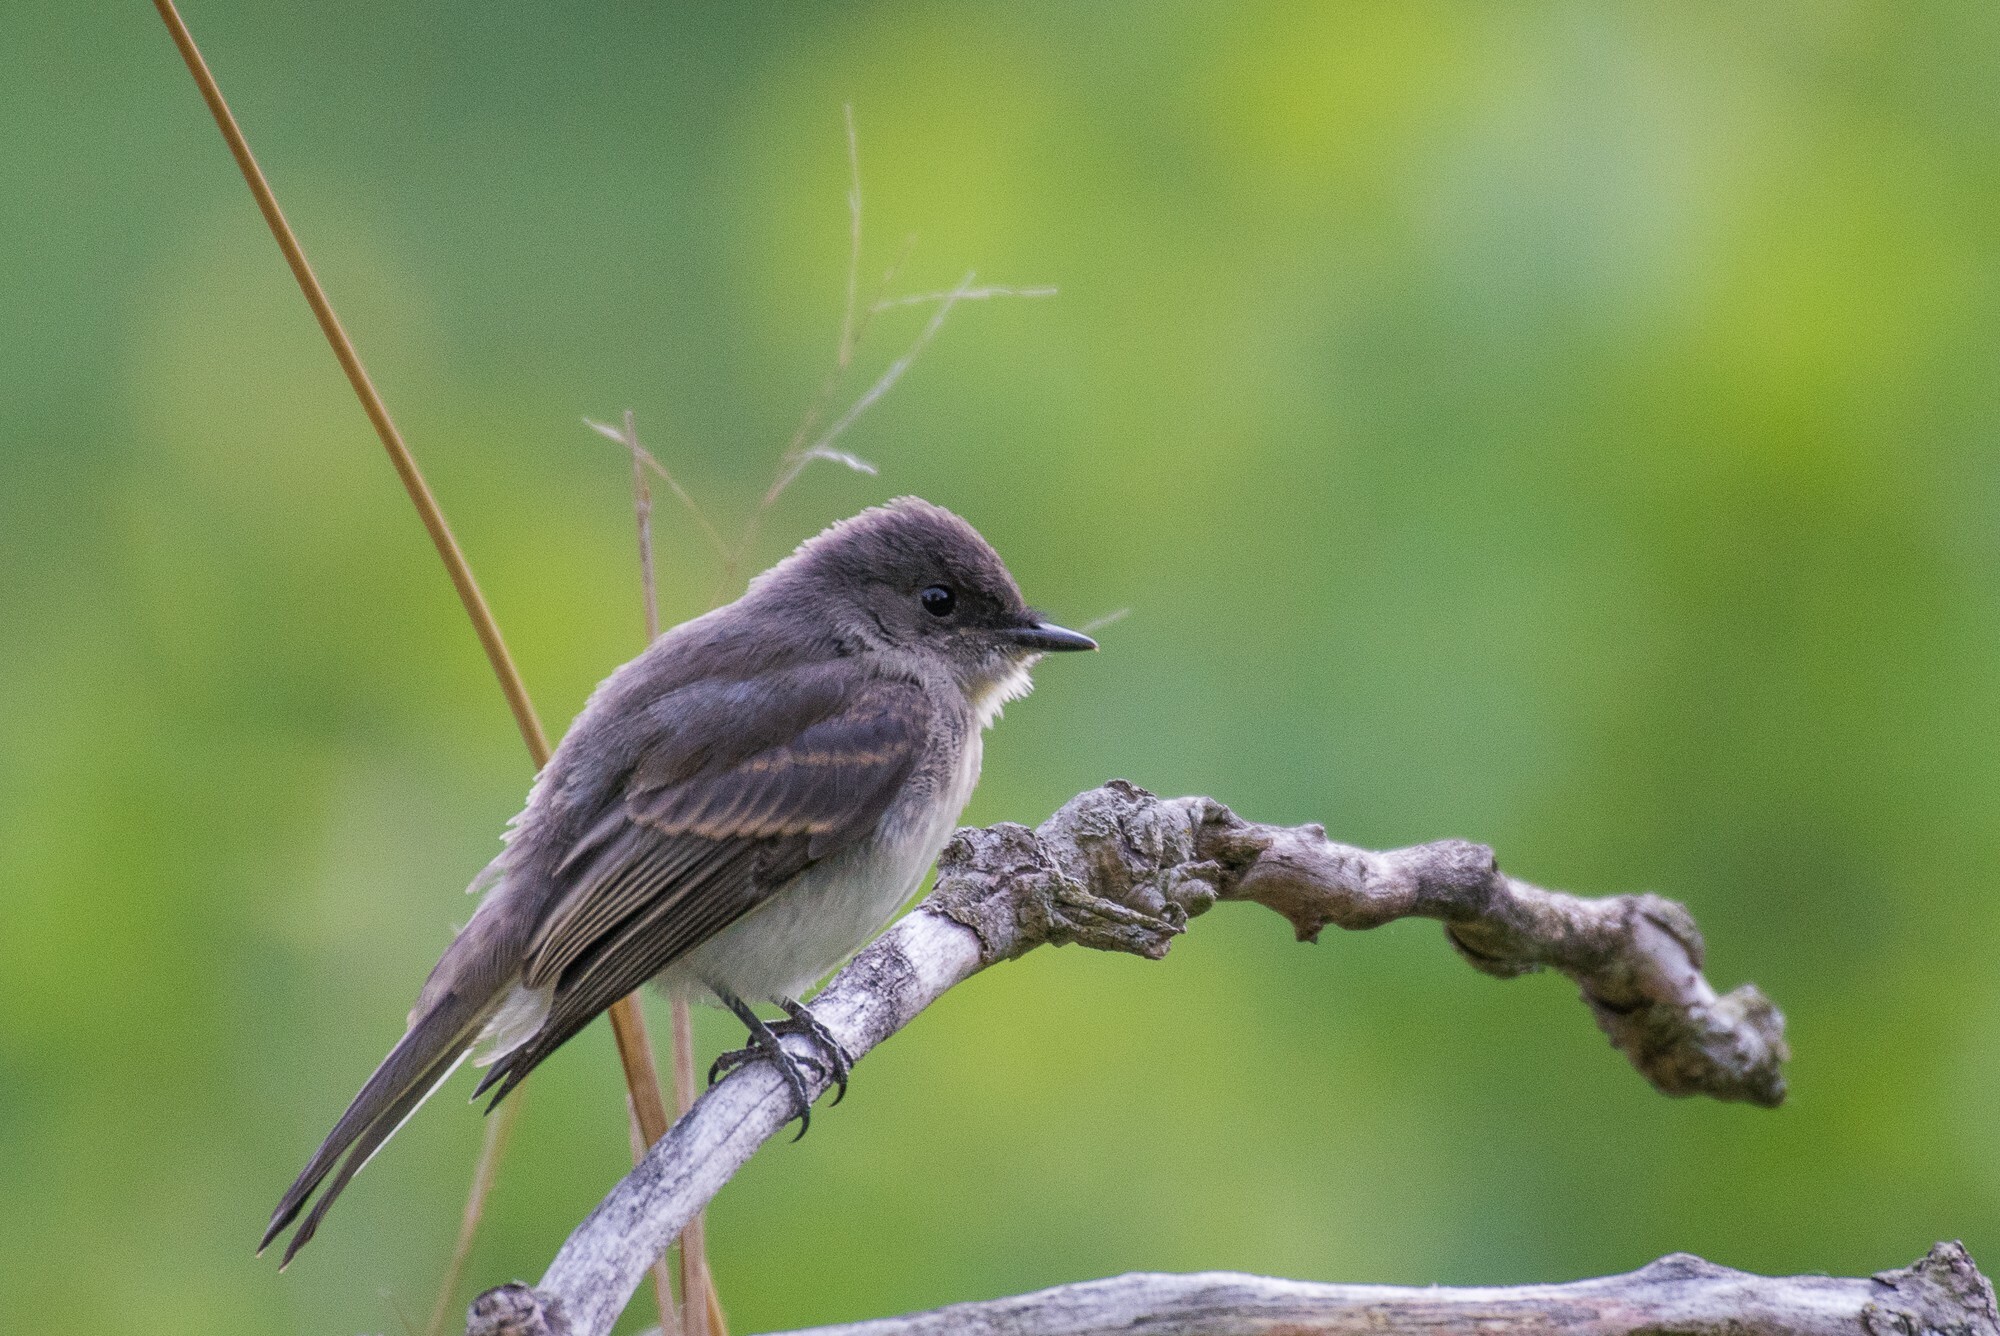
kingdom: Animalia
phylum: Chordata
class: Aves
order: Passeriformes
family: Tyrannidae
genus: Sayornis
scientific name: Sayornis phoebe
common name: Eastern phoebe
